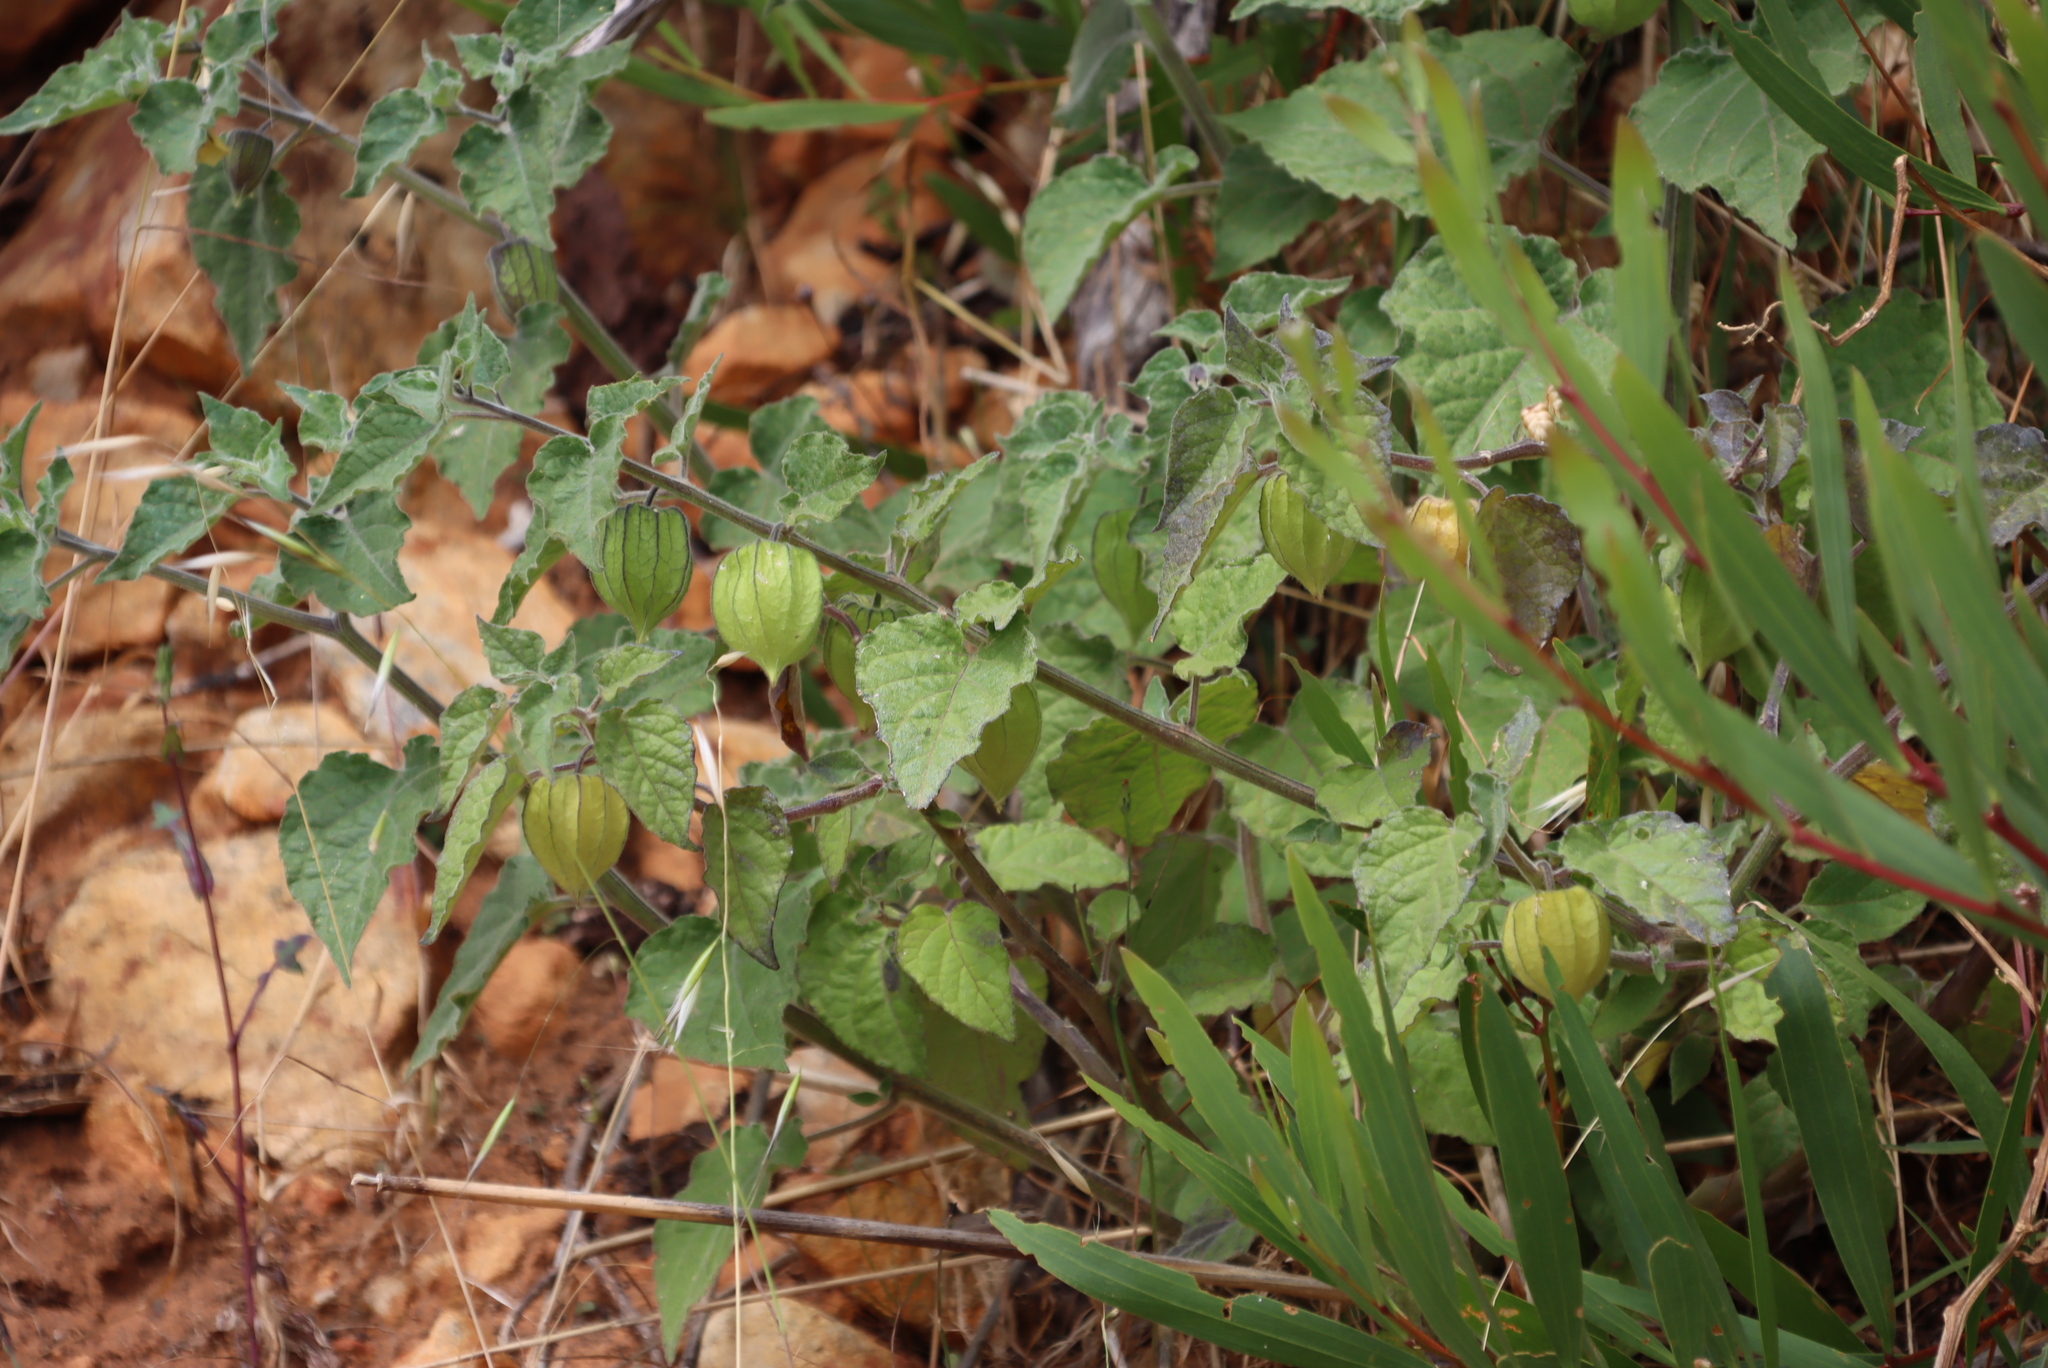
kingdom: Plantae
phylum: Tracheophyta
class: Magnoliopsida
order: Solanales
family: Solanaceae
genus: Physalis
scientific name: Physalis peruviana
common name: Cape-gooseberry
